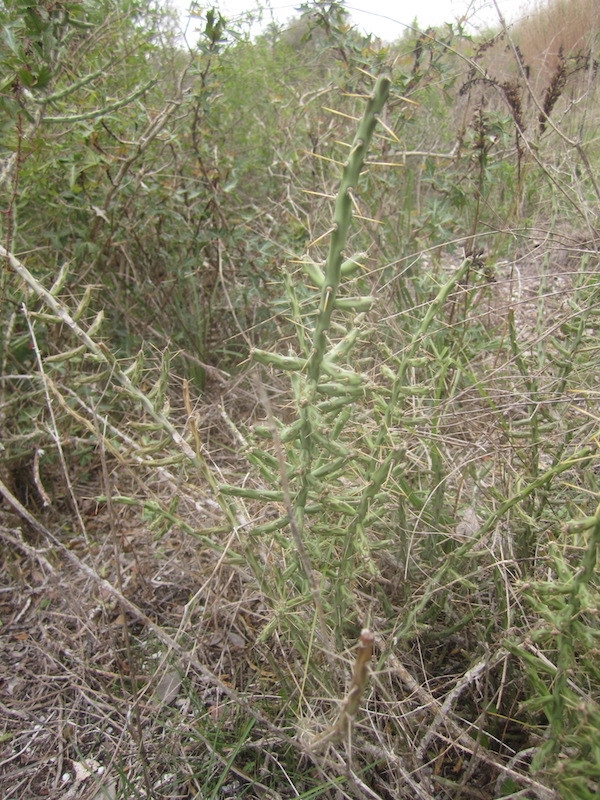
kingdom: Plantae
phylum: Tracheophyta
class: Magnoliopsida
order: Caryophyllales
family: Cactaceae
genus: Cylindropuntia
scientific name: Cylindropuntia leptocaulis
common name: Christmas cactus
